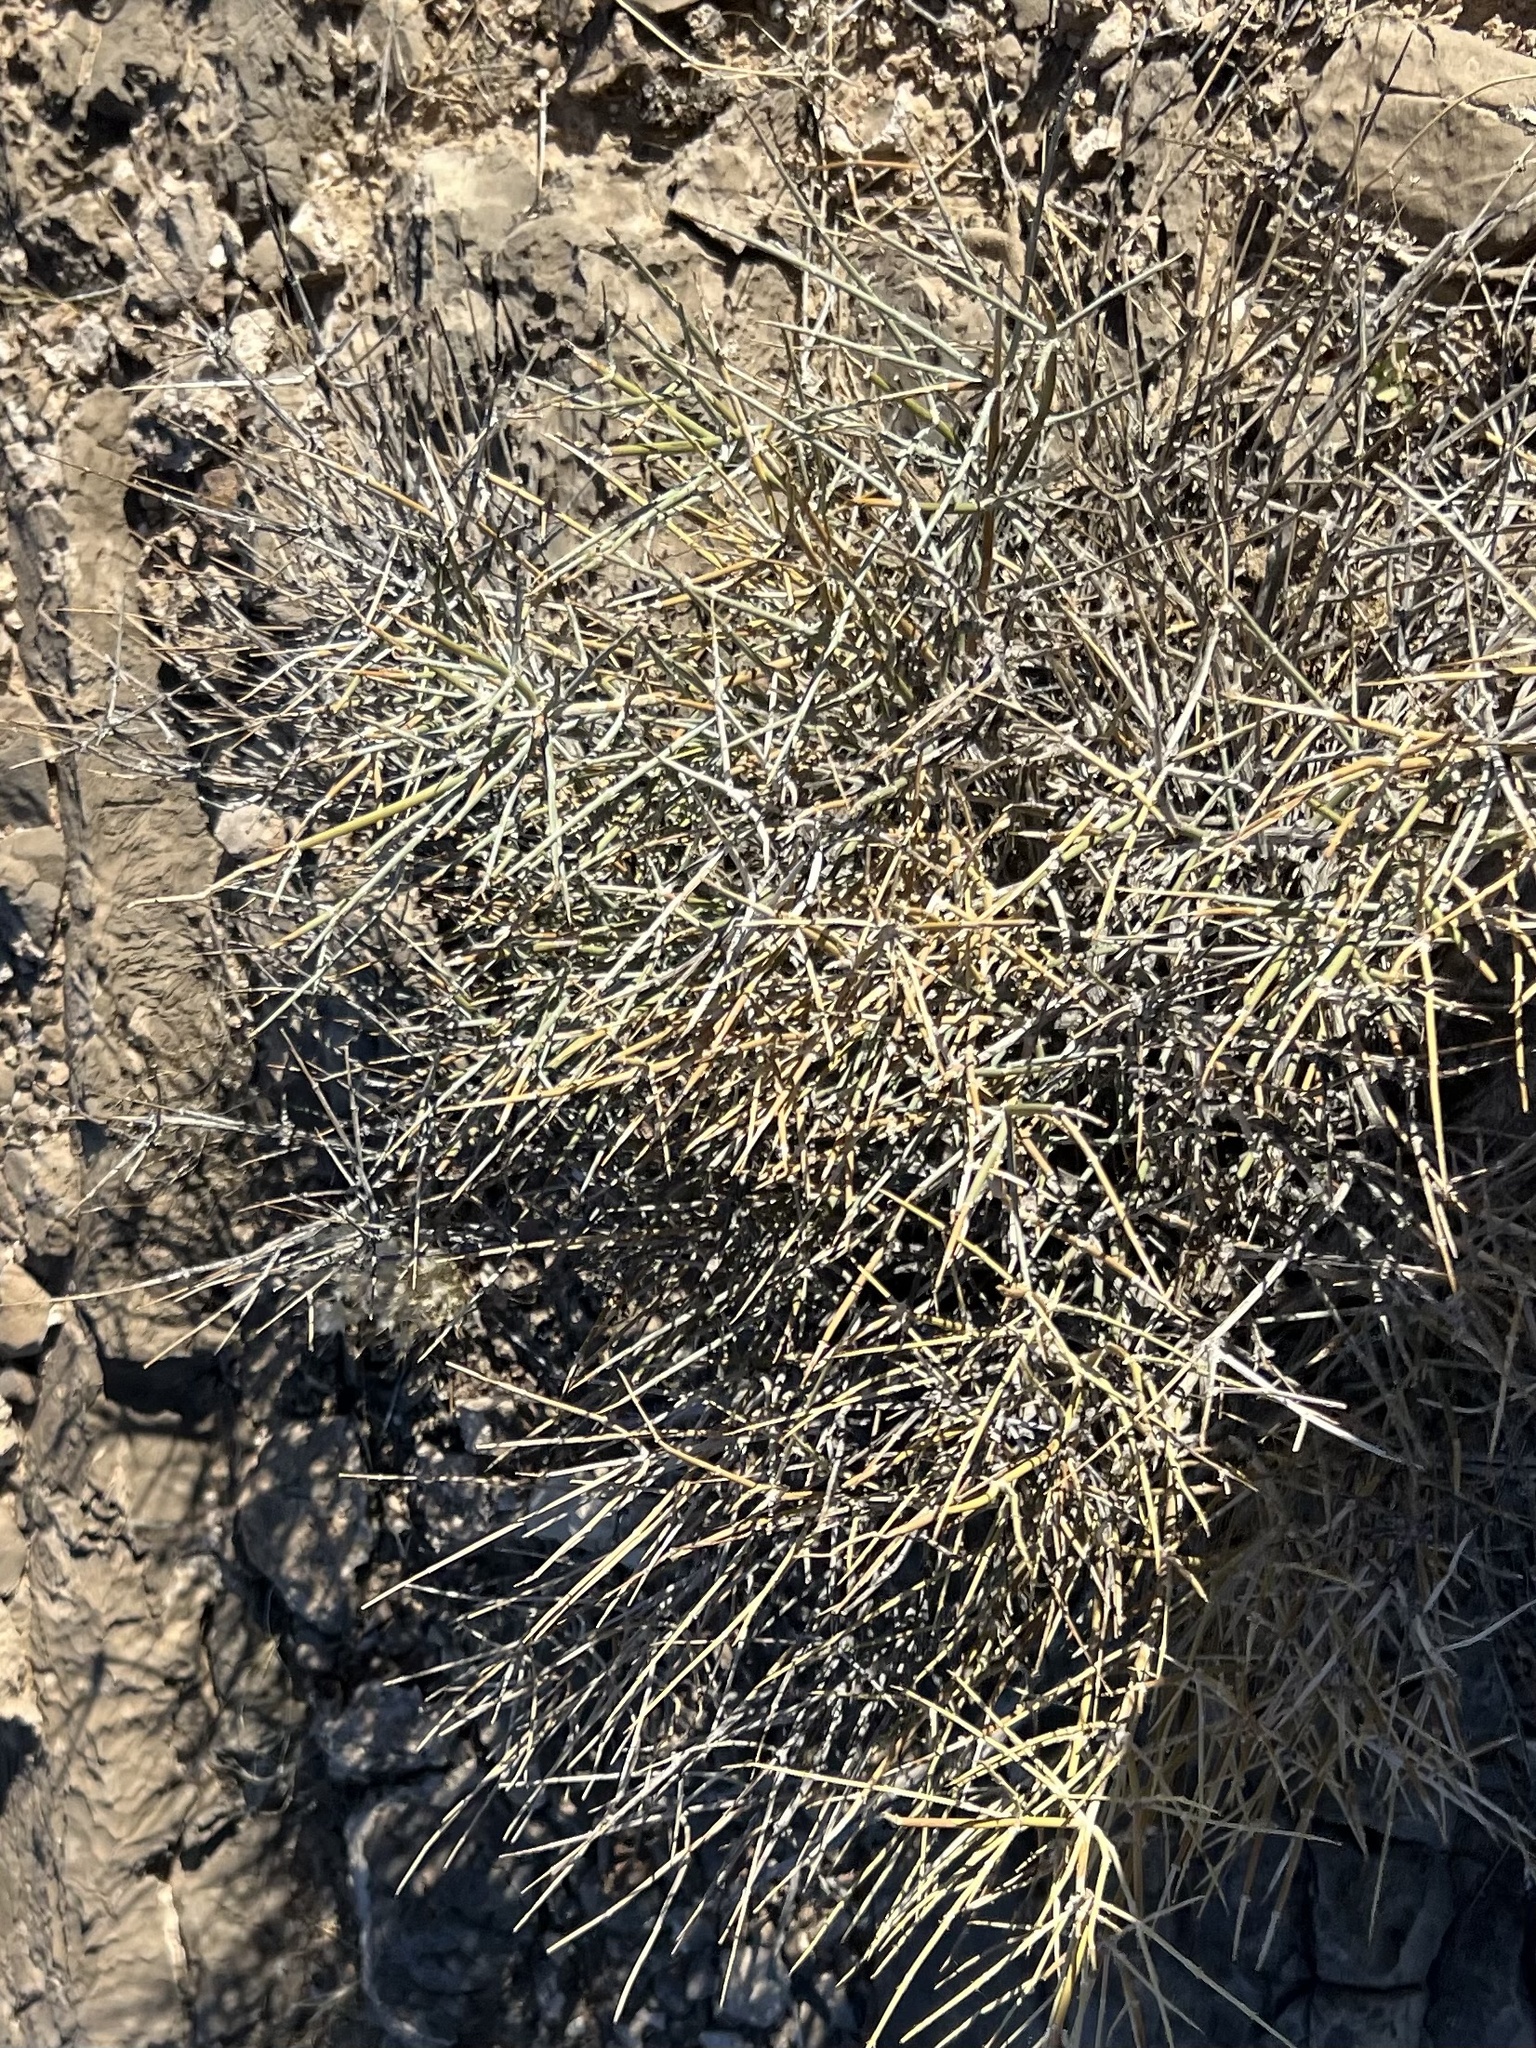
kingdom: Plantae
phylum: Tracheophyta
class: Gnetopsida
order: Ephedrales
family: Ephedraceae
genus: Ephedra
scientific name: Ephedra nevadensis
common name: Gray ephedra
